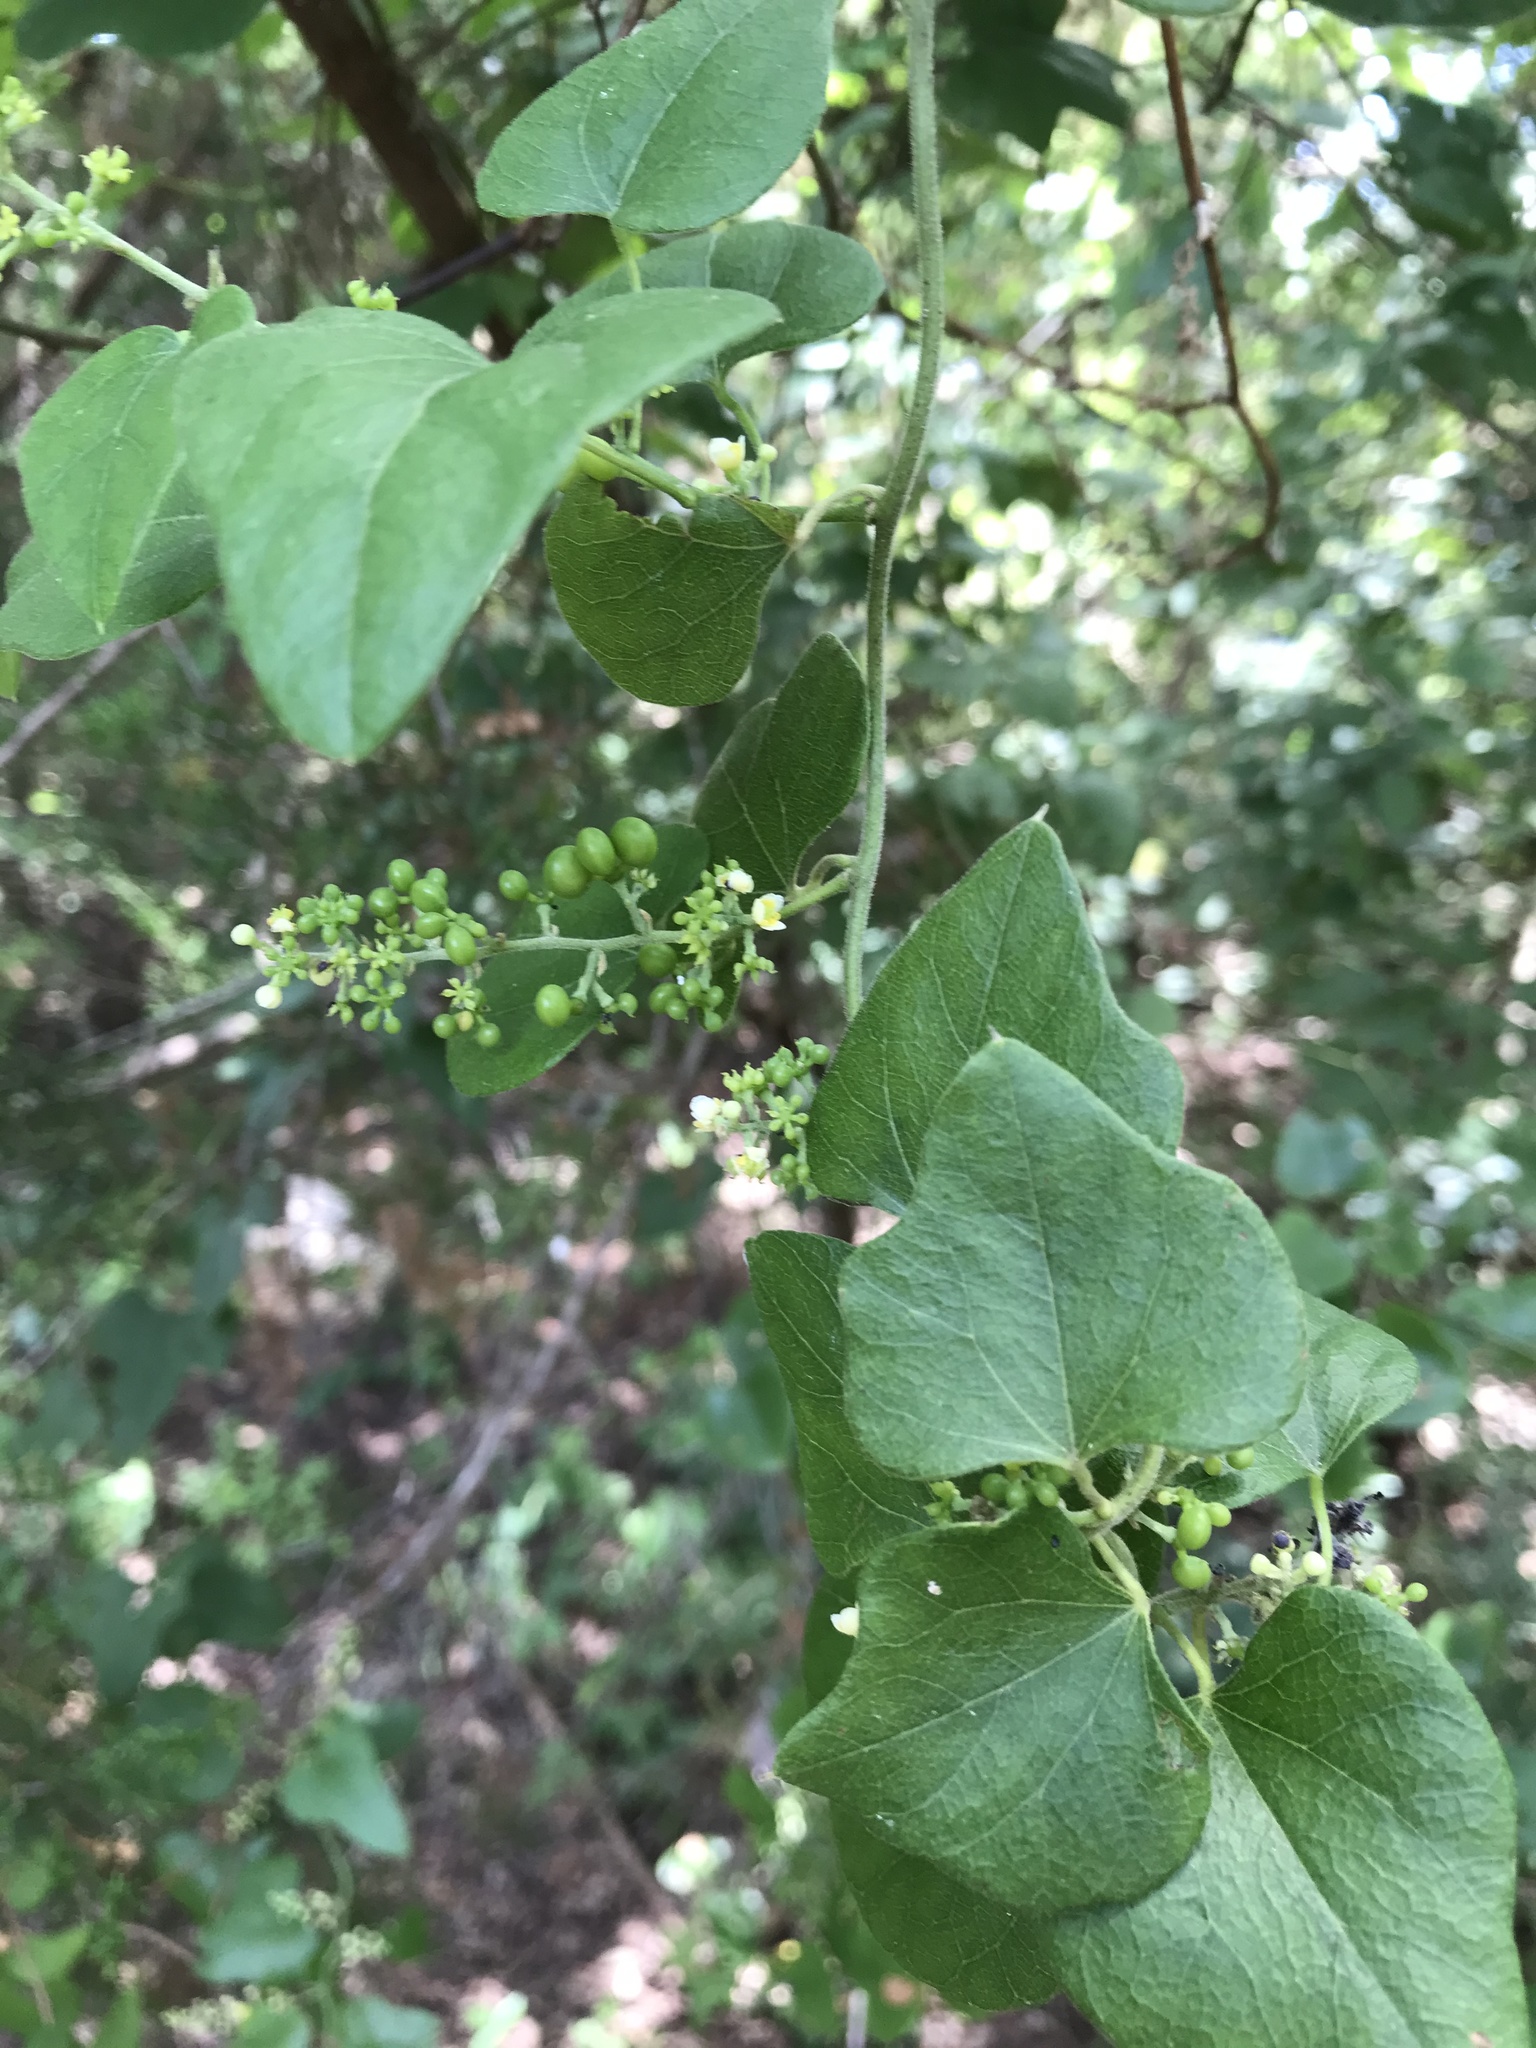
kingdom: Plantae
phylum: Tracheophyta
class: Magnoliopsida
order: Ranunculales
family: Menispermaceae
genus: Cocculus
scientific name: Cocculus carolinus
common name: Carolina moonseed
